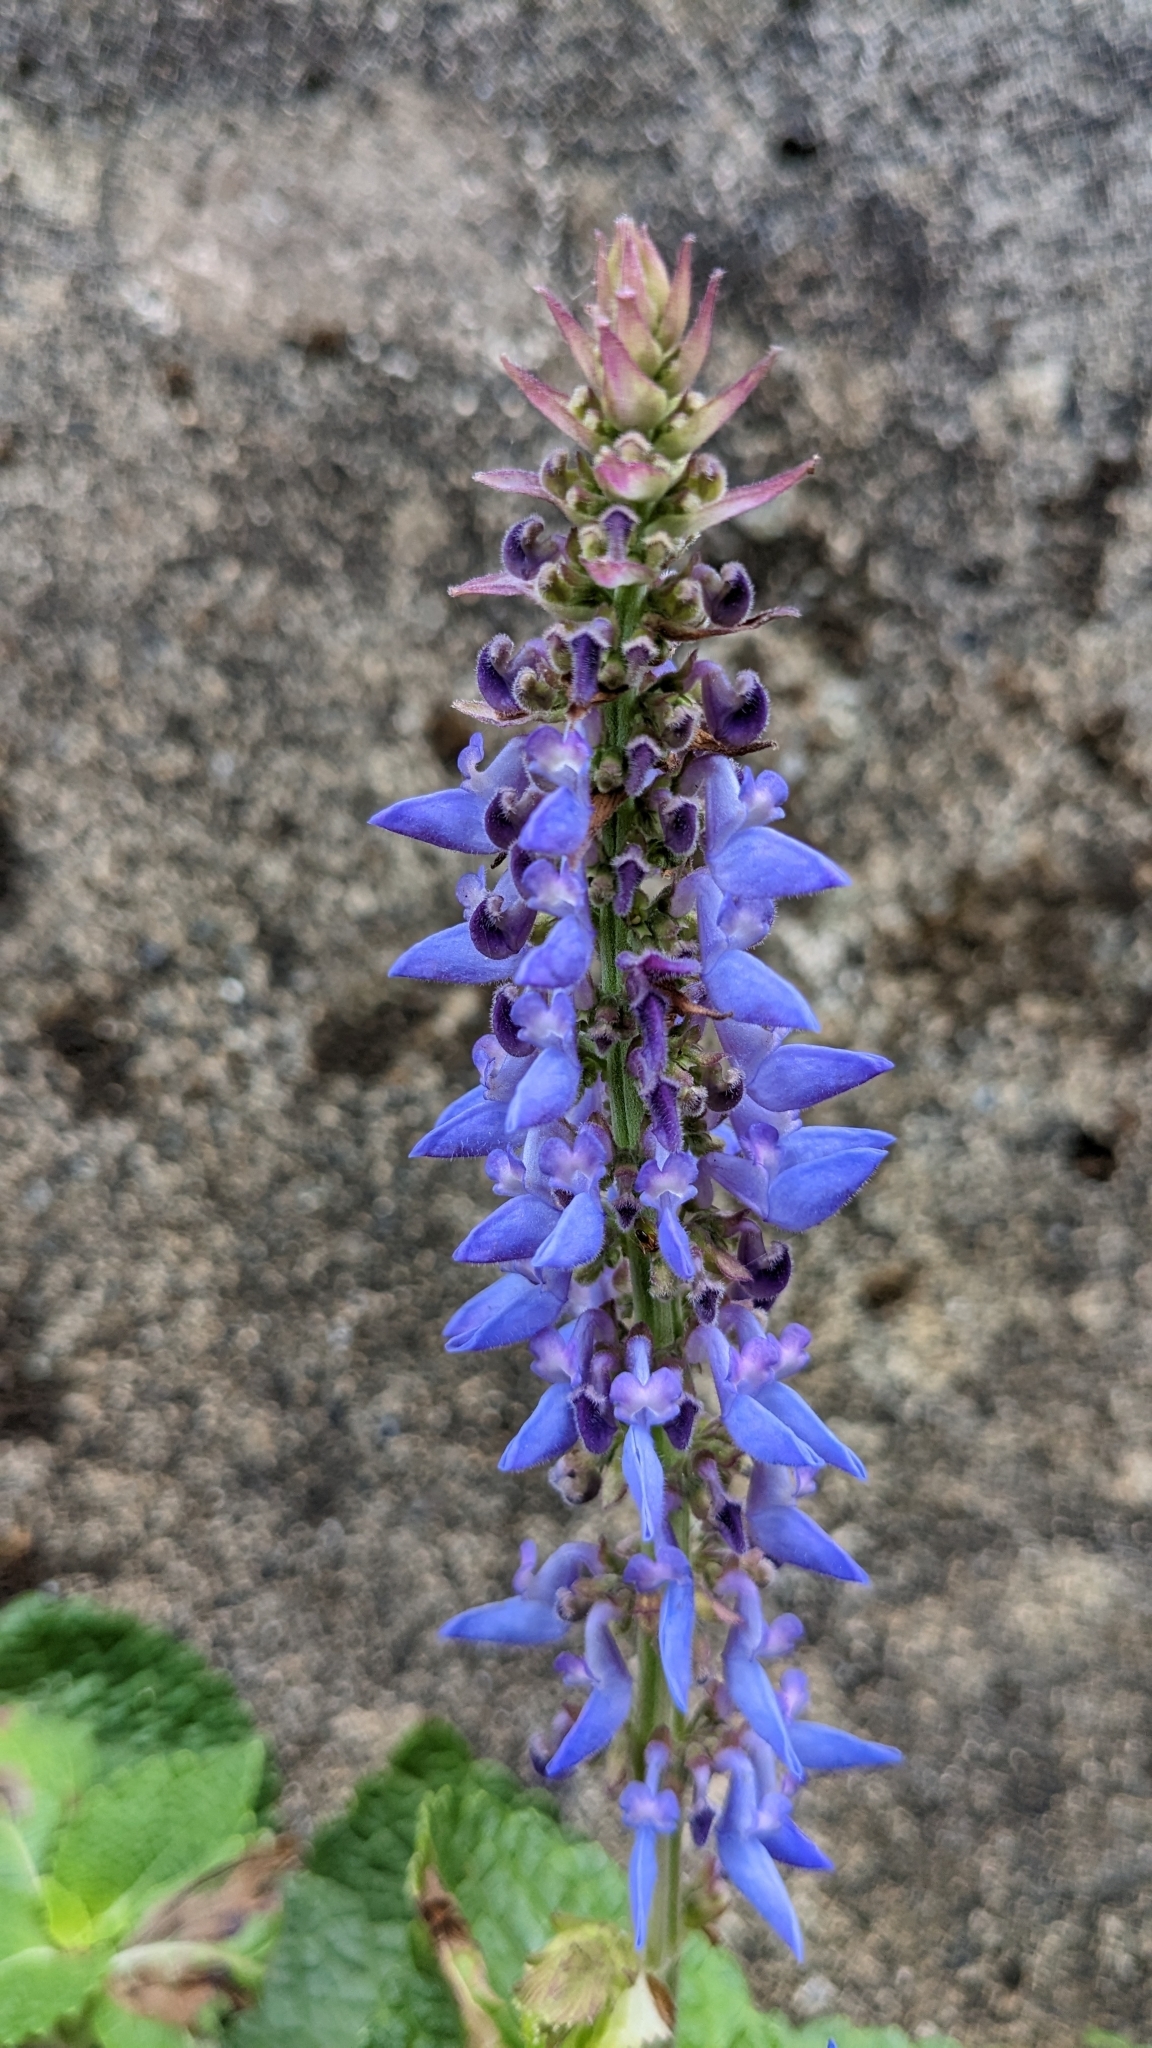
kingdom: Plantae
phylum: Tracheophyta
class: Magnoliopsida
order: Lamiales
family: Lamiaceae
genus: Coleus
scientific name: Coleus scutellarioides
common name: Coleus
